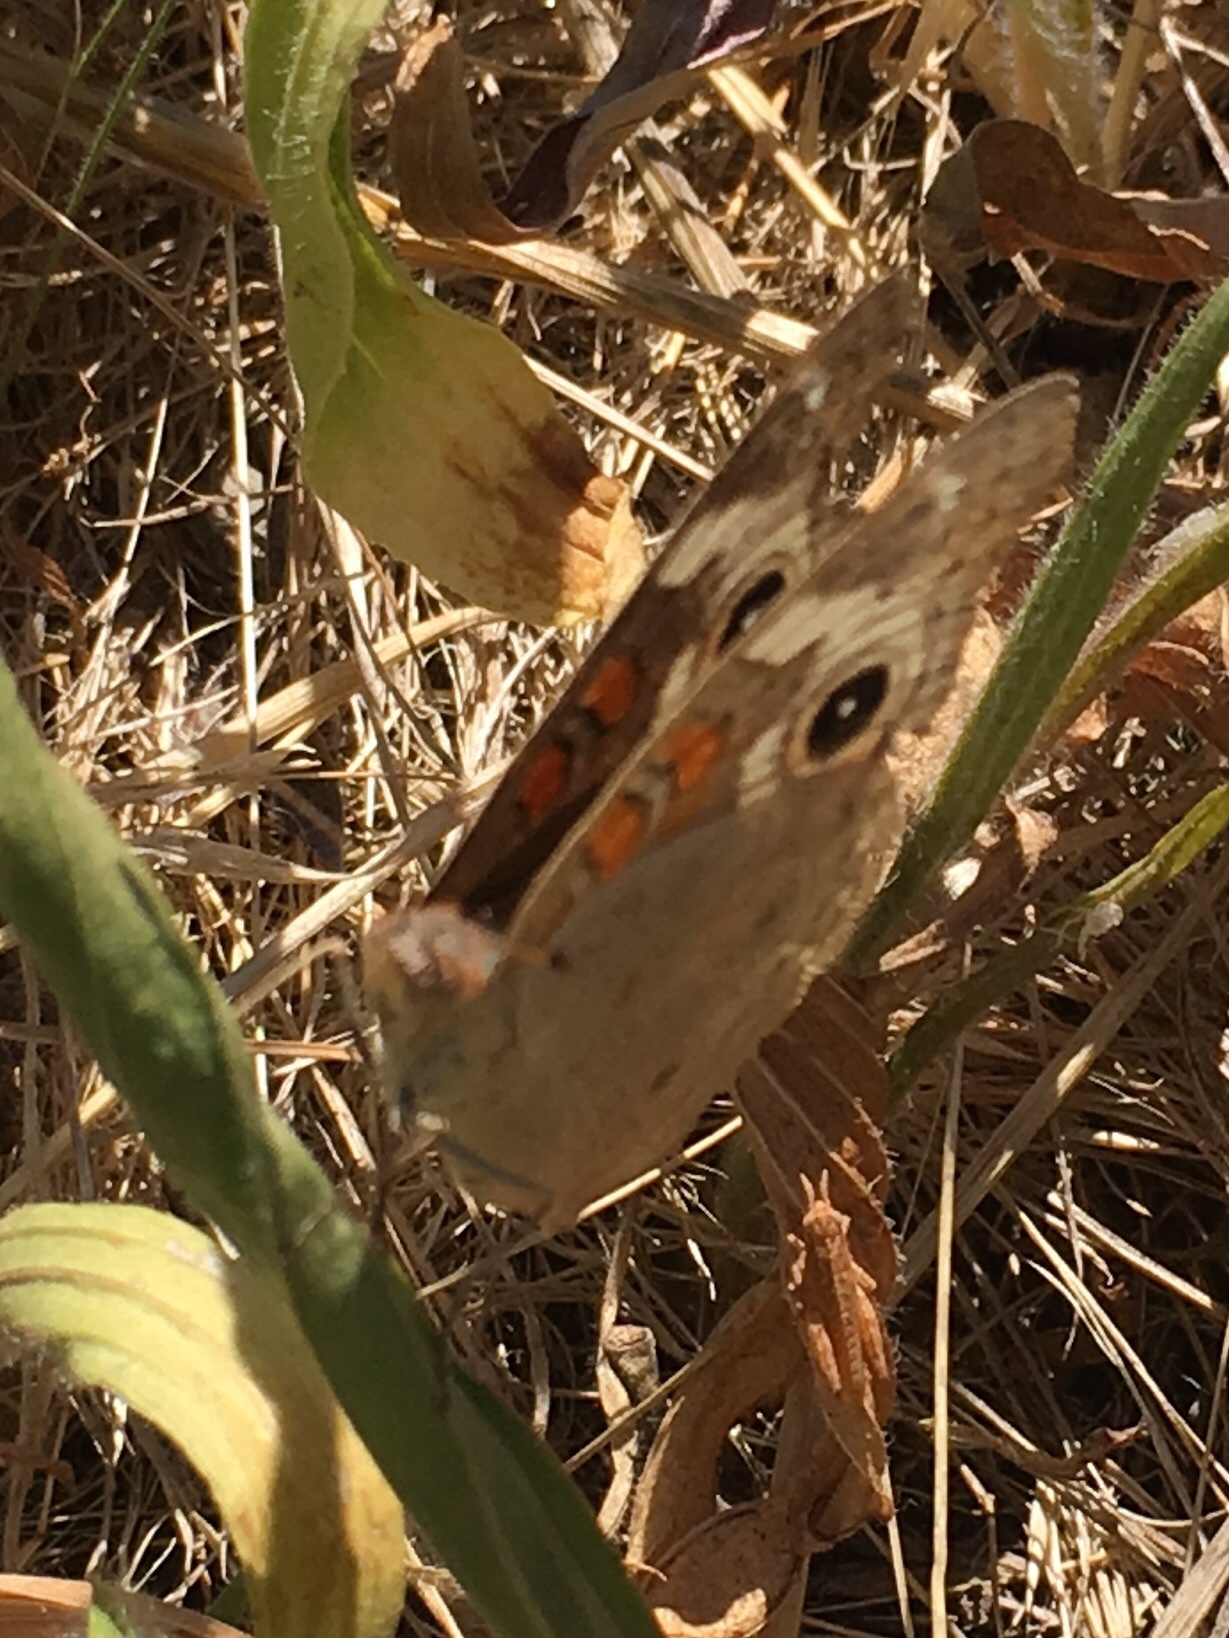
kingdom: Animalia
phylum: Arthropoda
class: Insecta
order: Lepidoptera
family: Nymphalidae
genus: Junonia
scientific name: Junonia grisea
